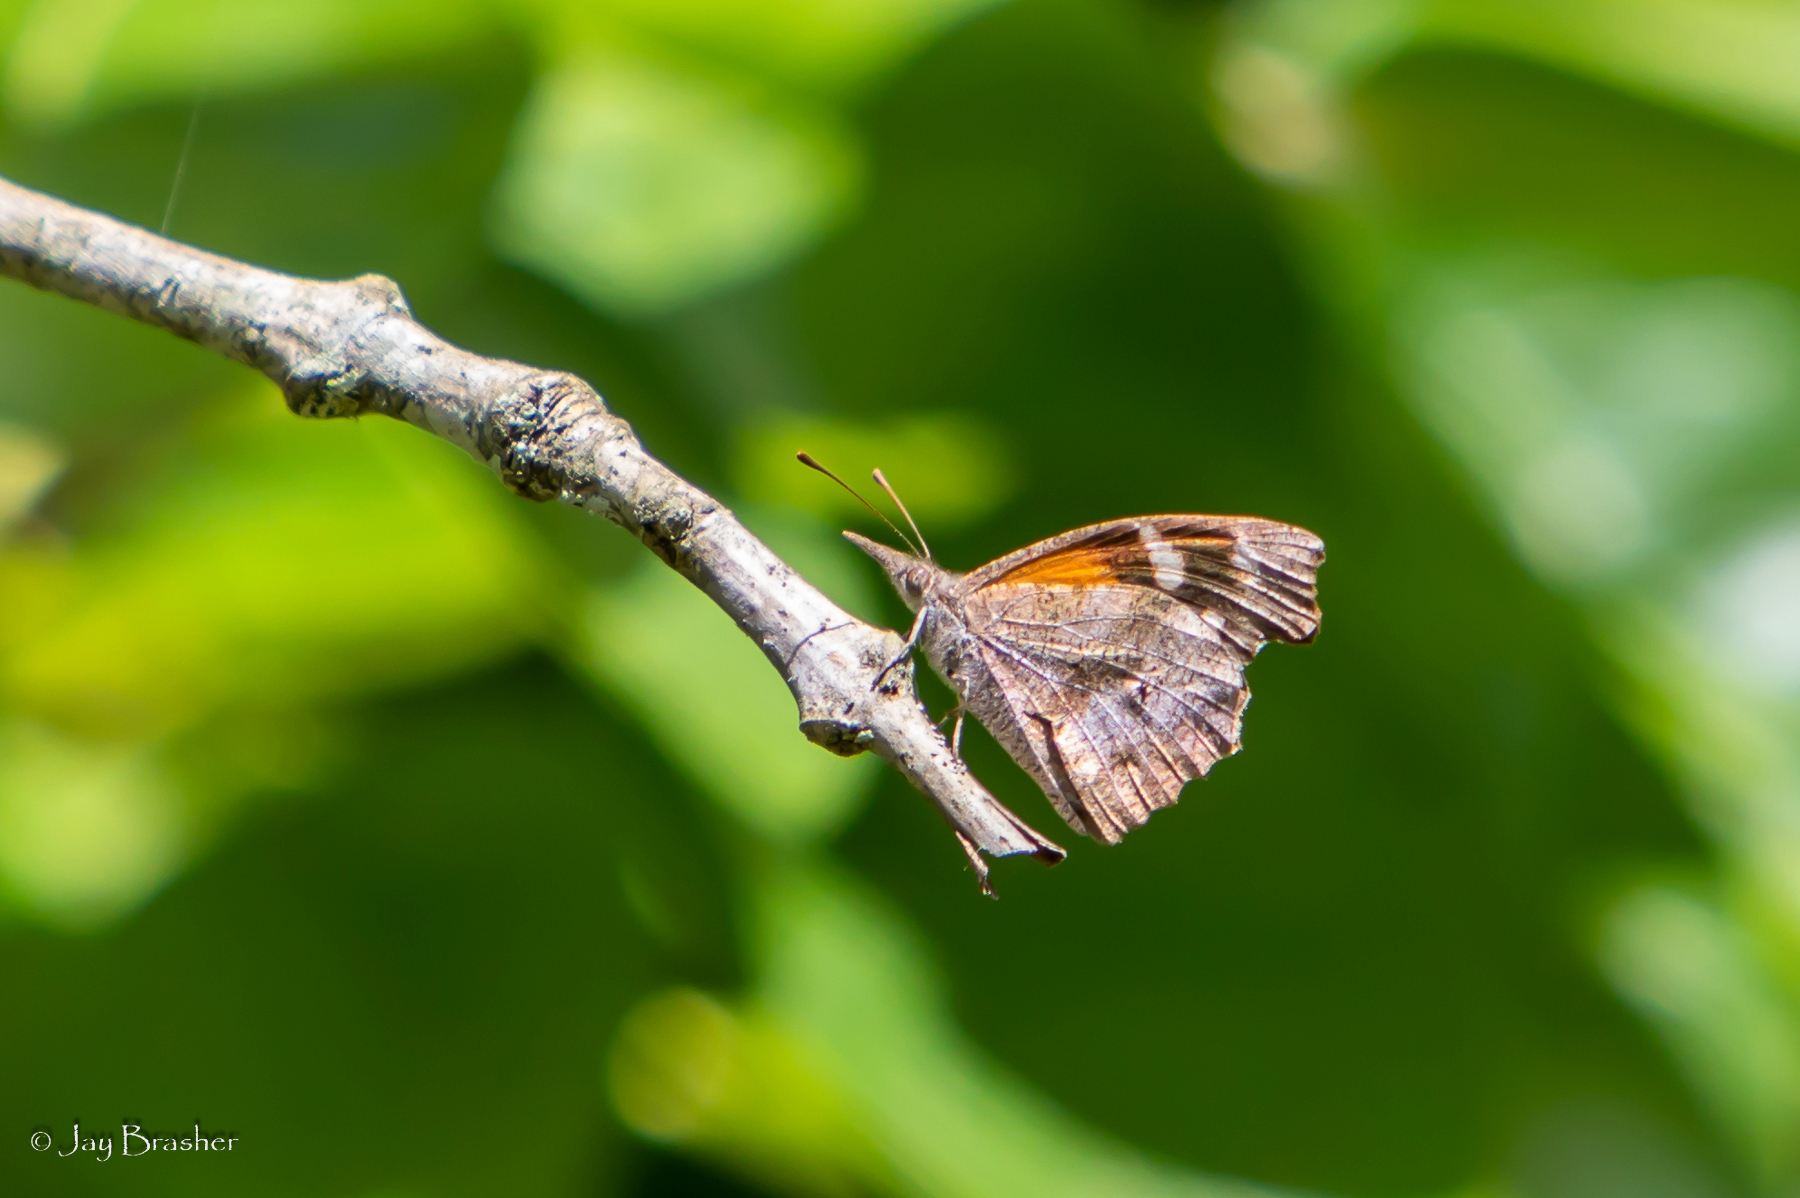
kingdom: Animalia
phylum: Arthropoda
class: Insecta
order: Lepidoptera
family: Nymphalidae
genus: Libytheana
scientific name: Libytheana carinenta
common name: American snout
